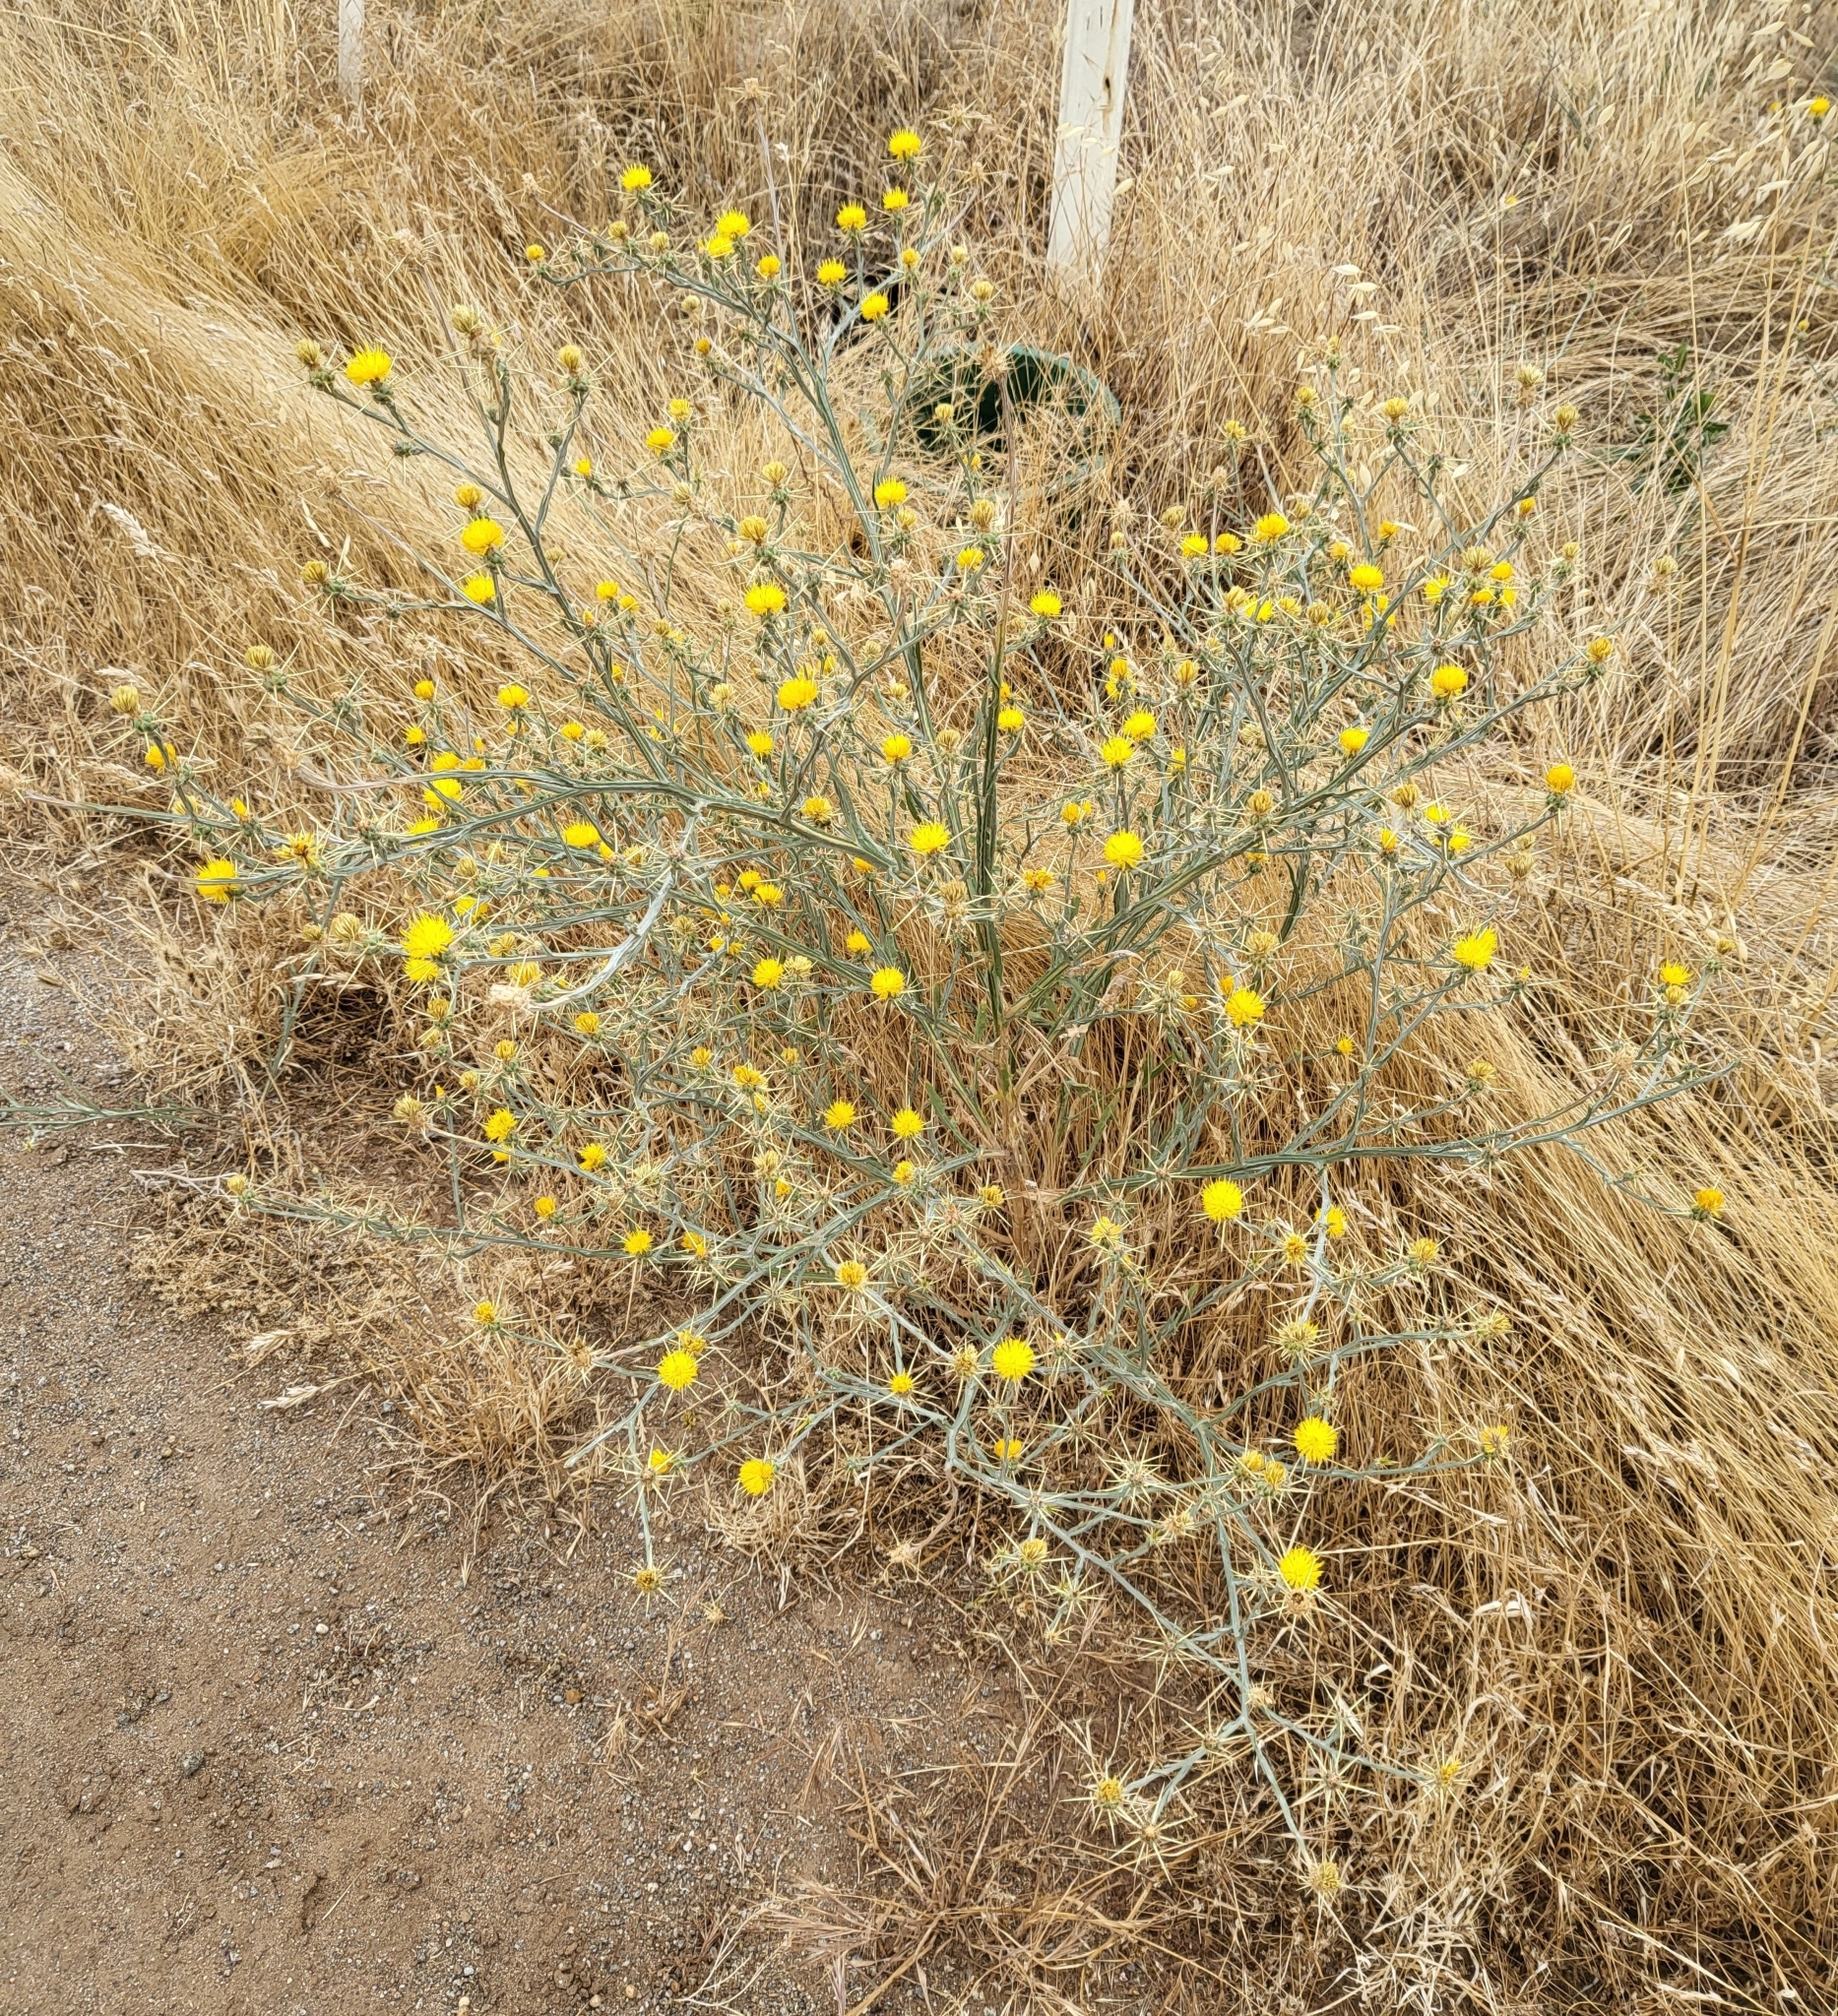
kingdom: Plantae
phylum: Tracheophyta
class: Magnoliopsida
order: Asterales
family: Asteraceae
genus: Centaurea
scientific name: Centaurea solstitialis
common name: Yellow star-thistle
